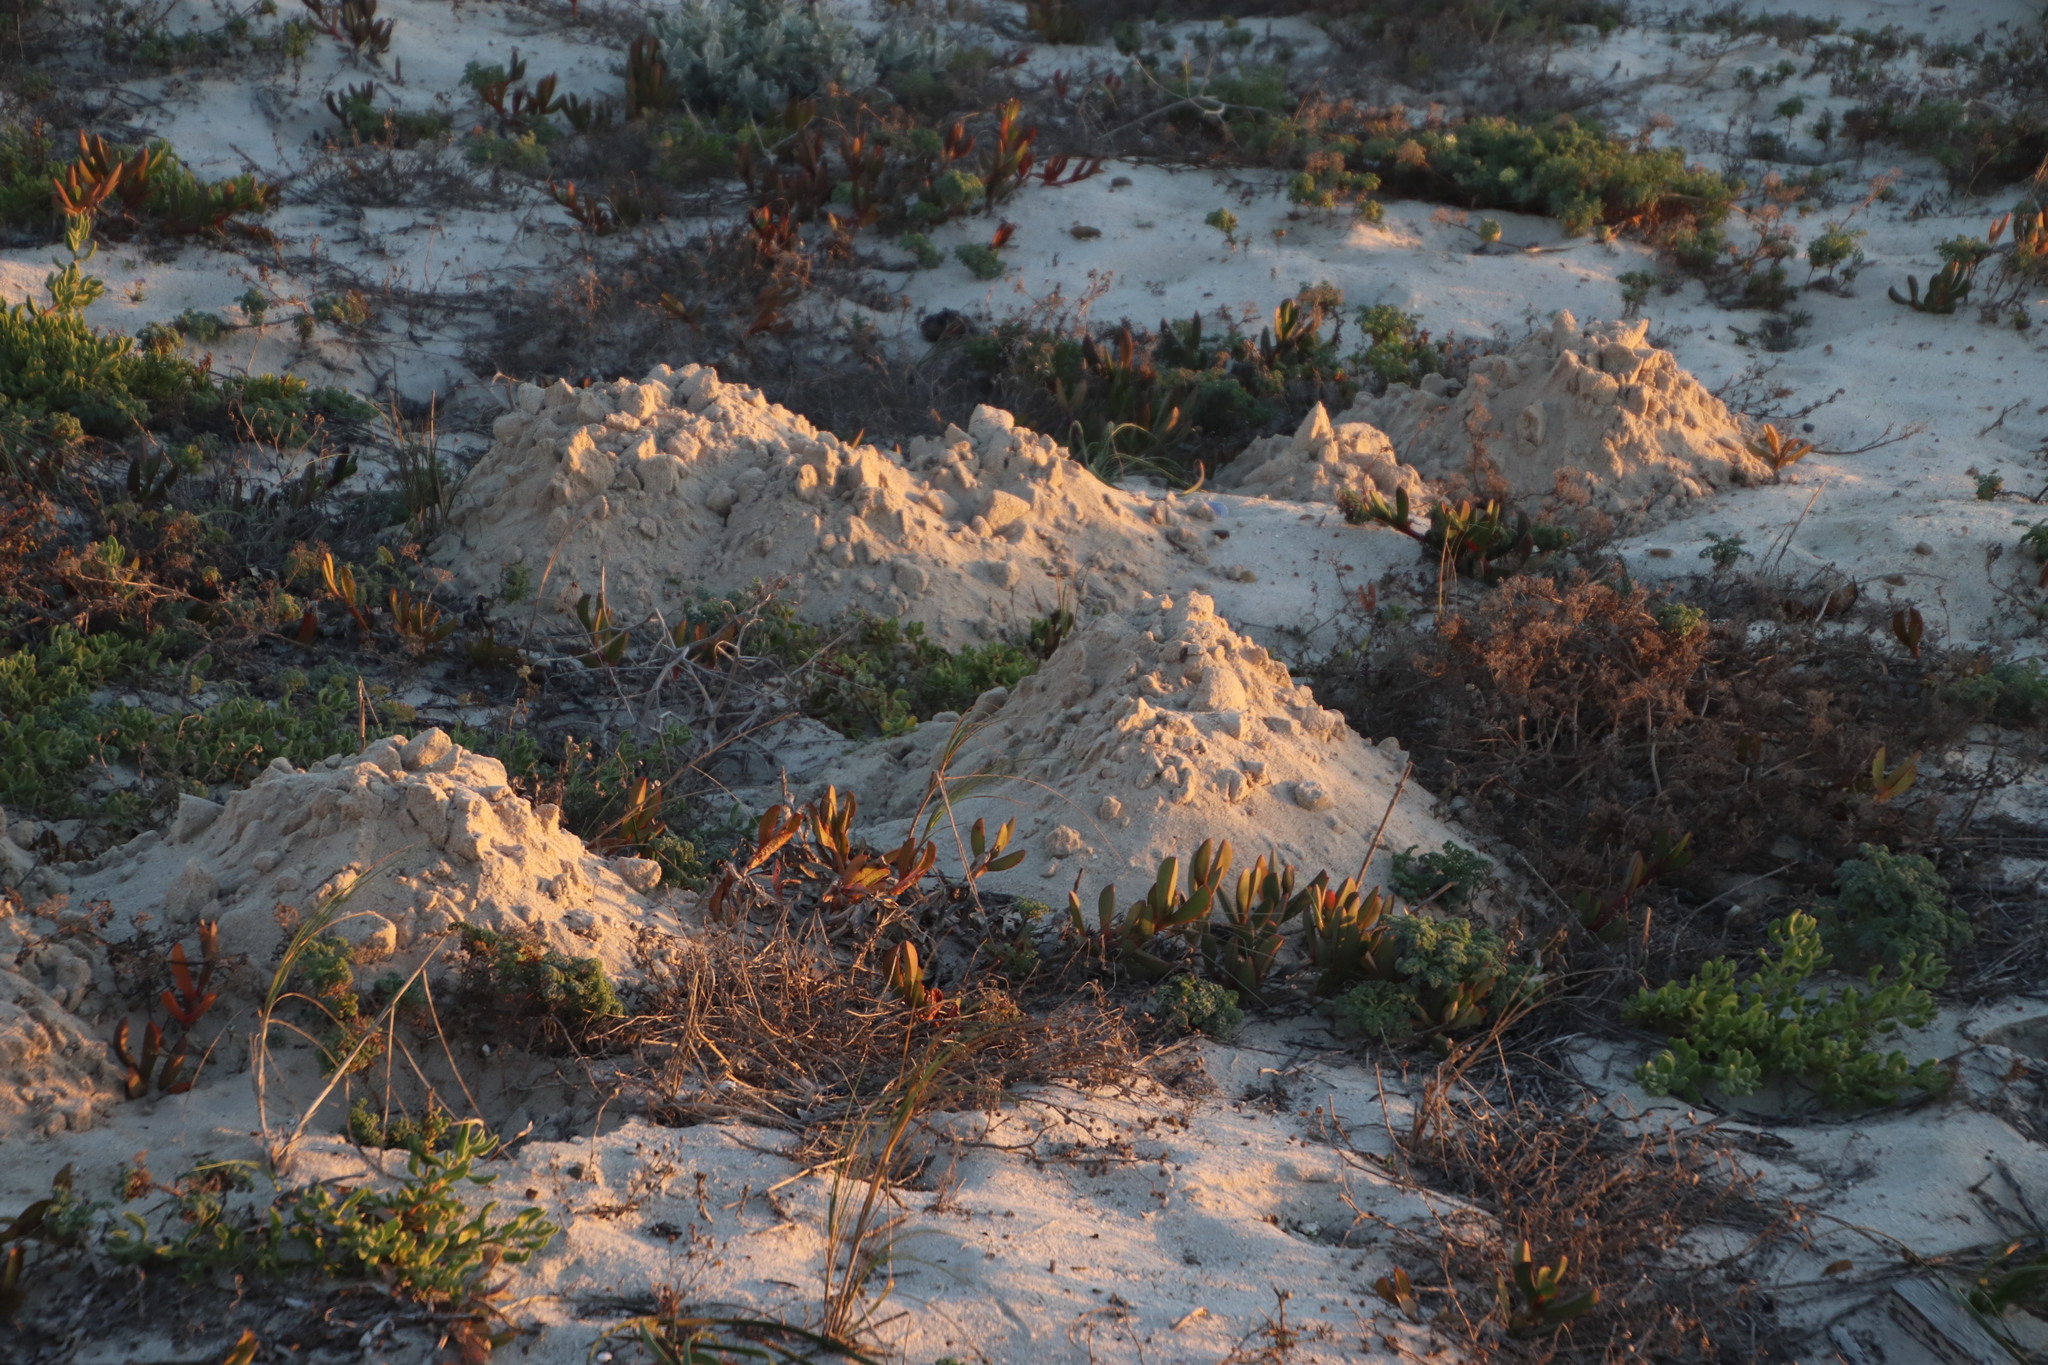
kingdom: Animalia
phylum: Chordata
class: Mammalia
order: Rodentia
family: Bathyergidae
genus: Bathyergus
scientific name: Bathyergus suillus
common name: Cape dune mole rat
